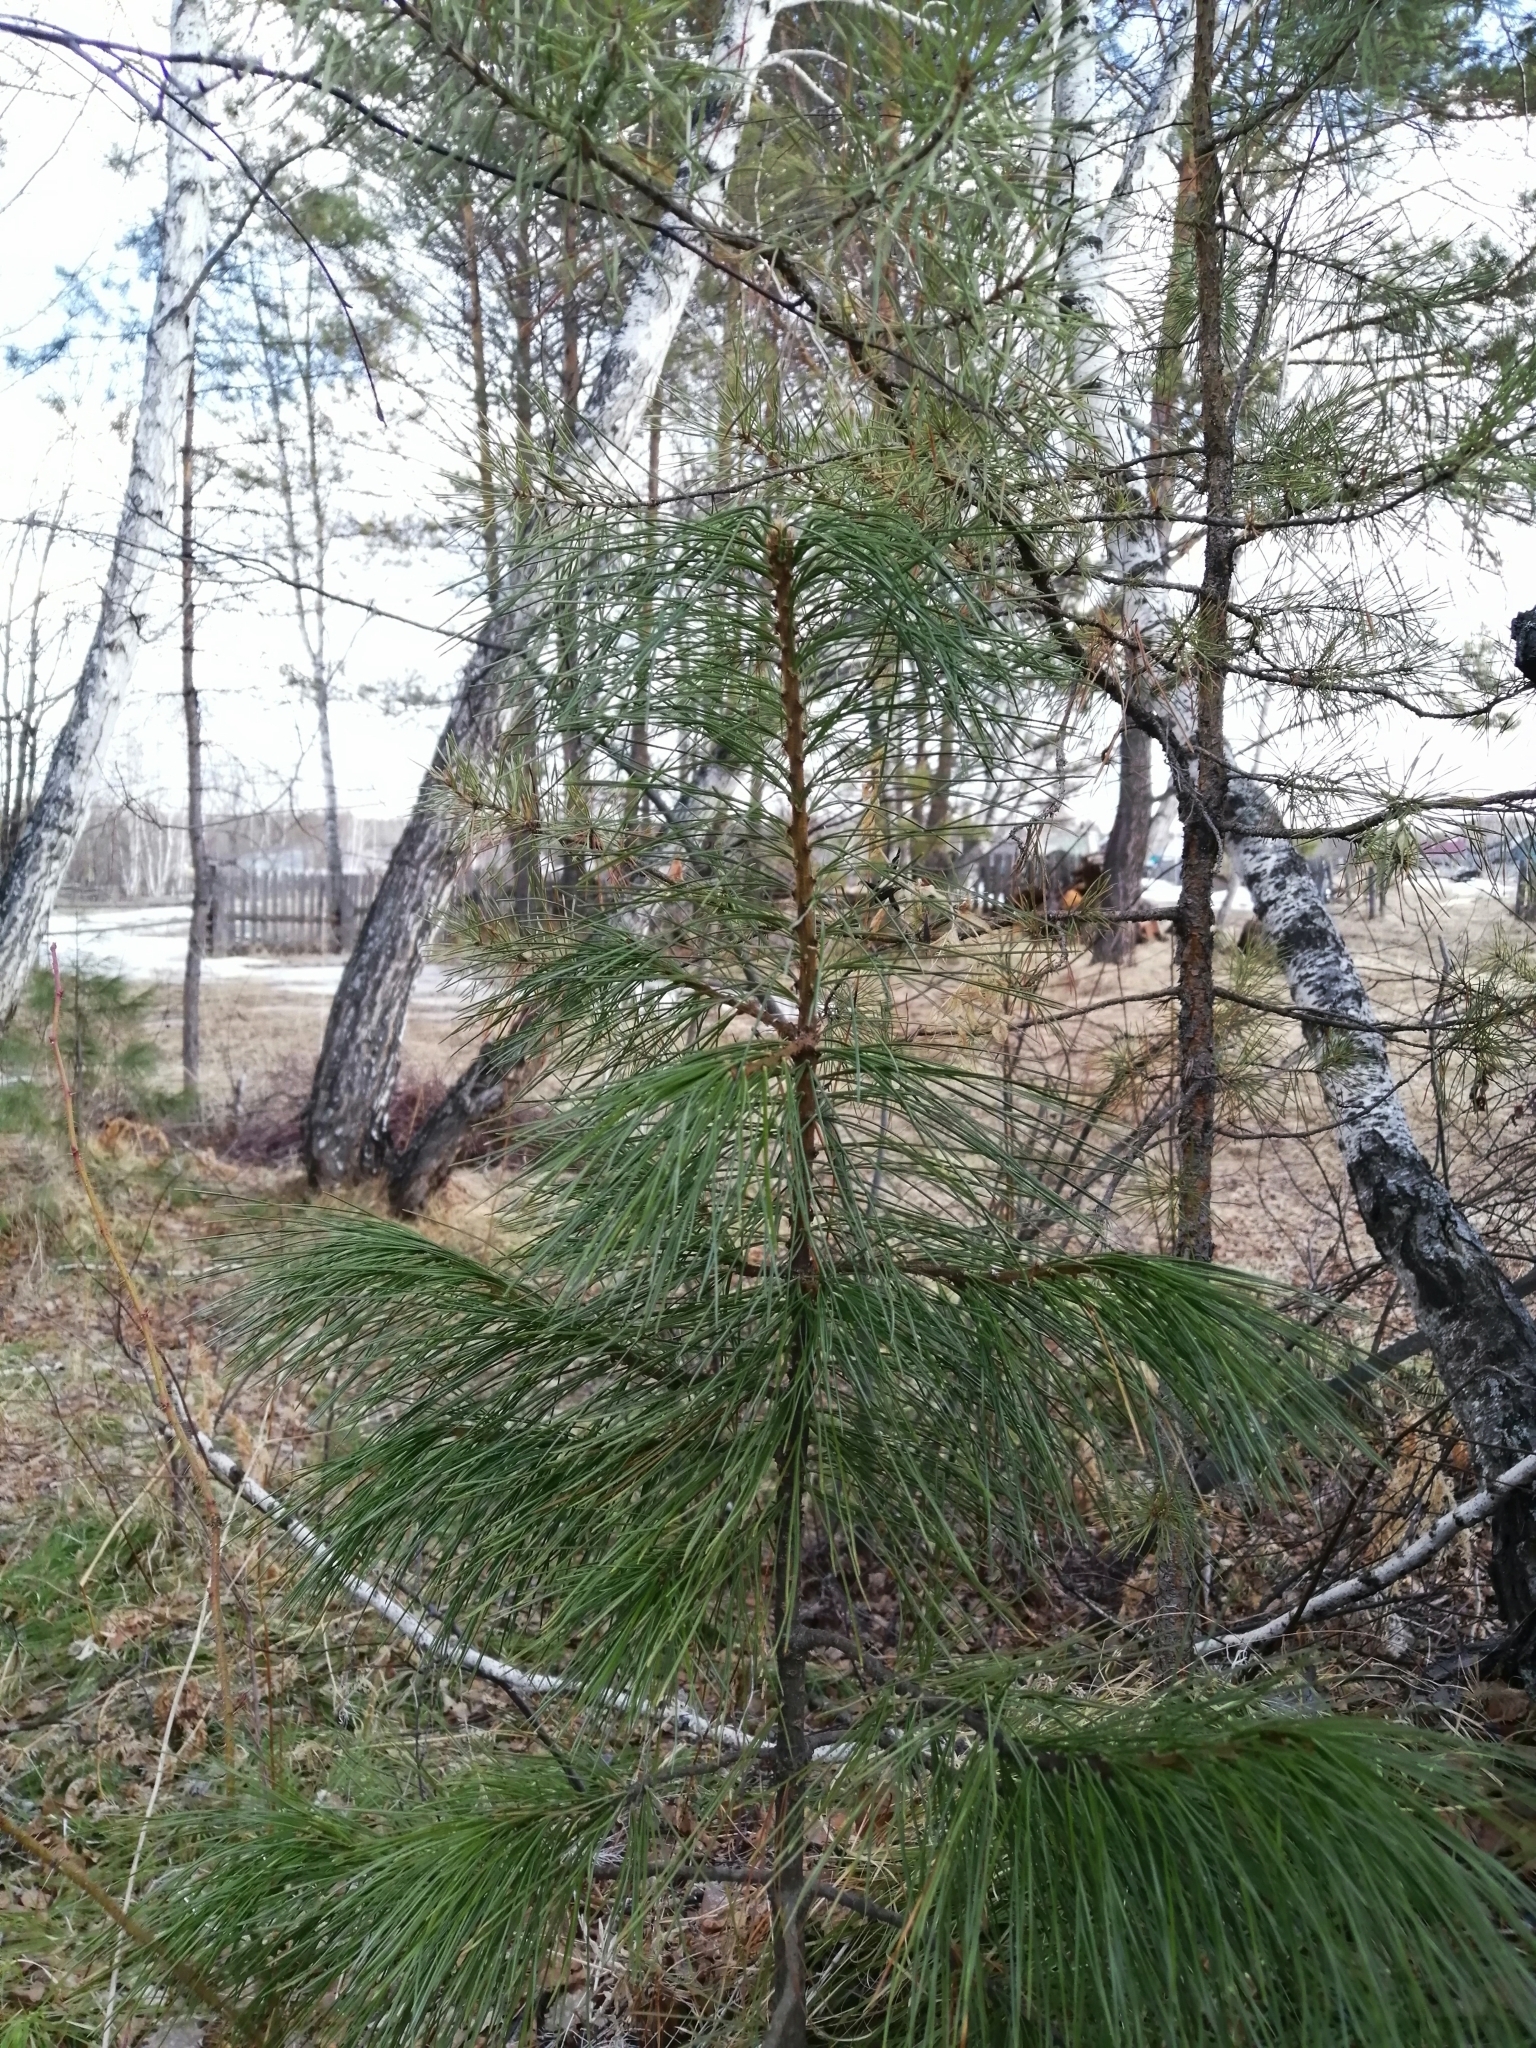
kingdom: Plantae
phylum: Tracheophyta
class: Pinopsida
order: Pinales
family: Pinaceae
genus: Pinus
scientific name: Pinus sibirica
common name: Siberian pine
